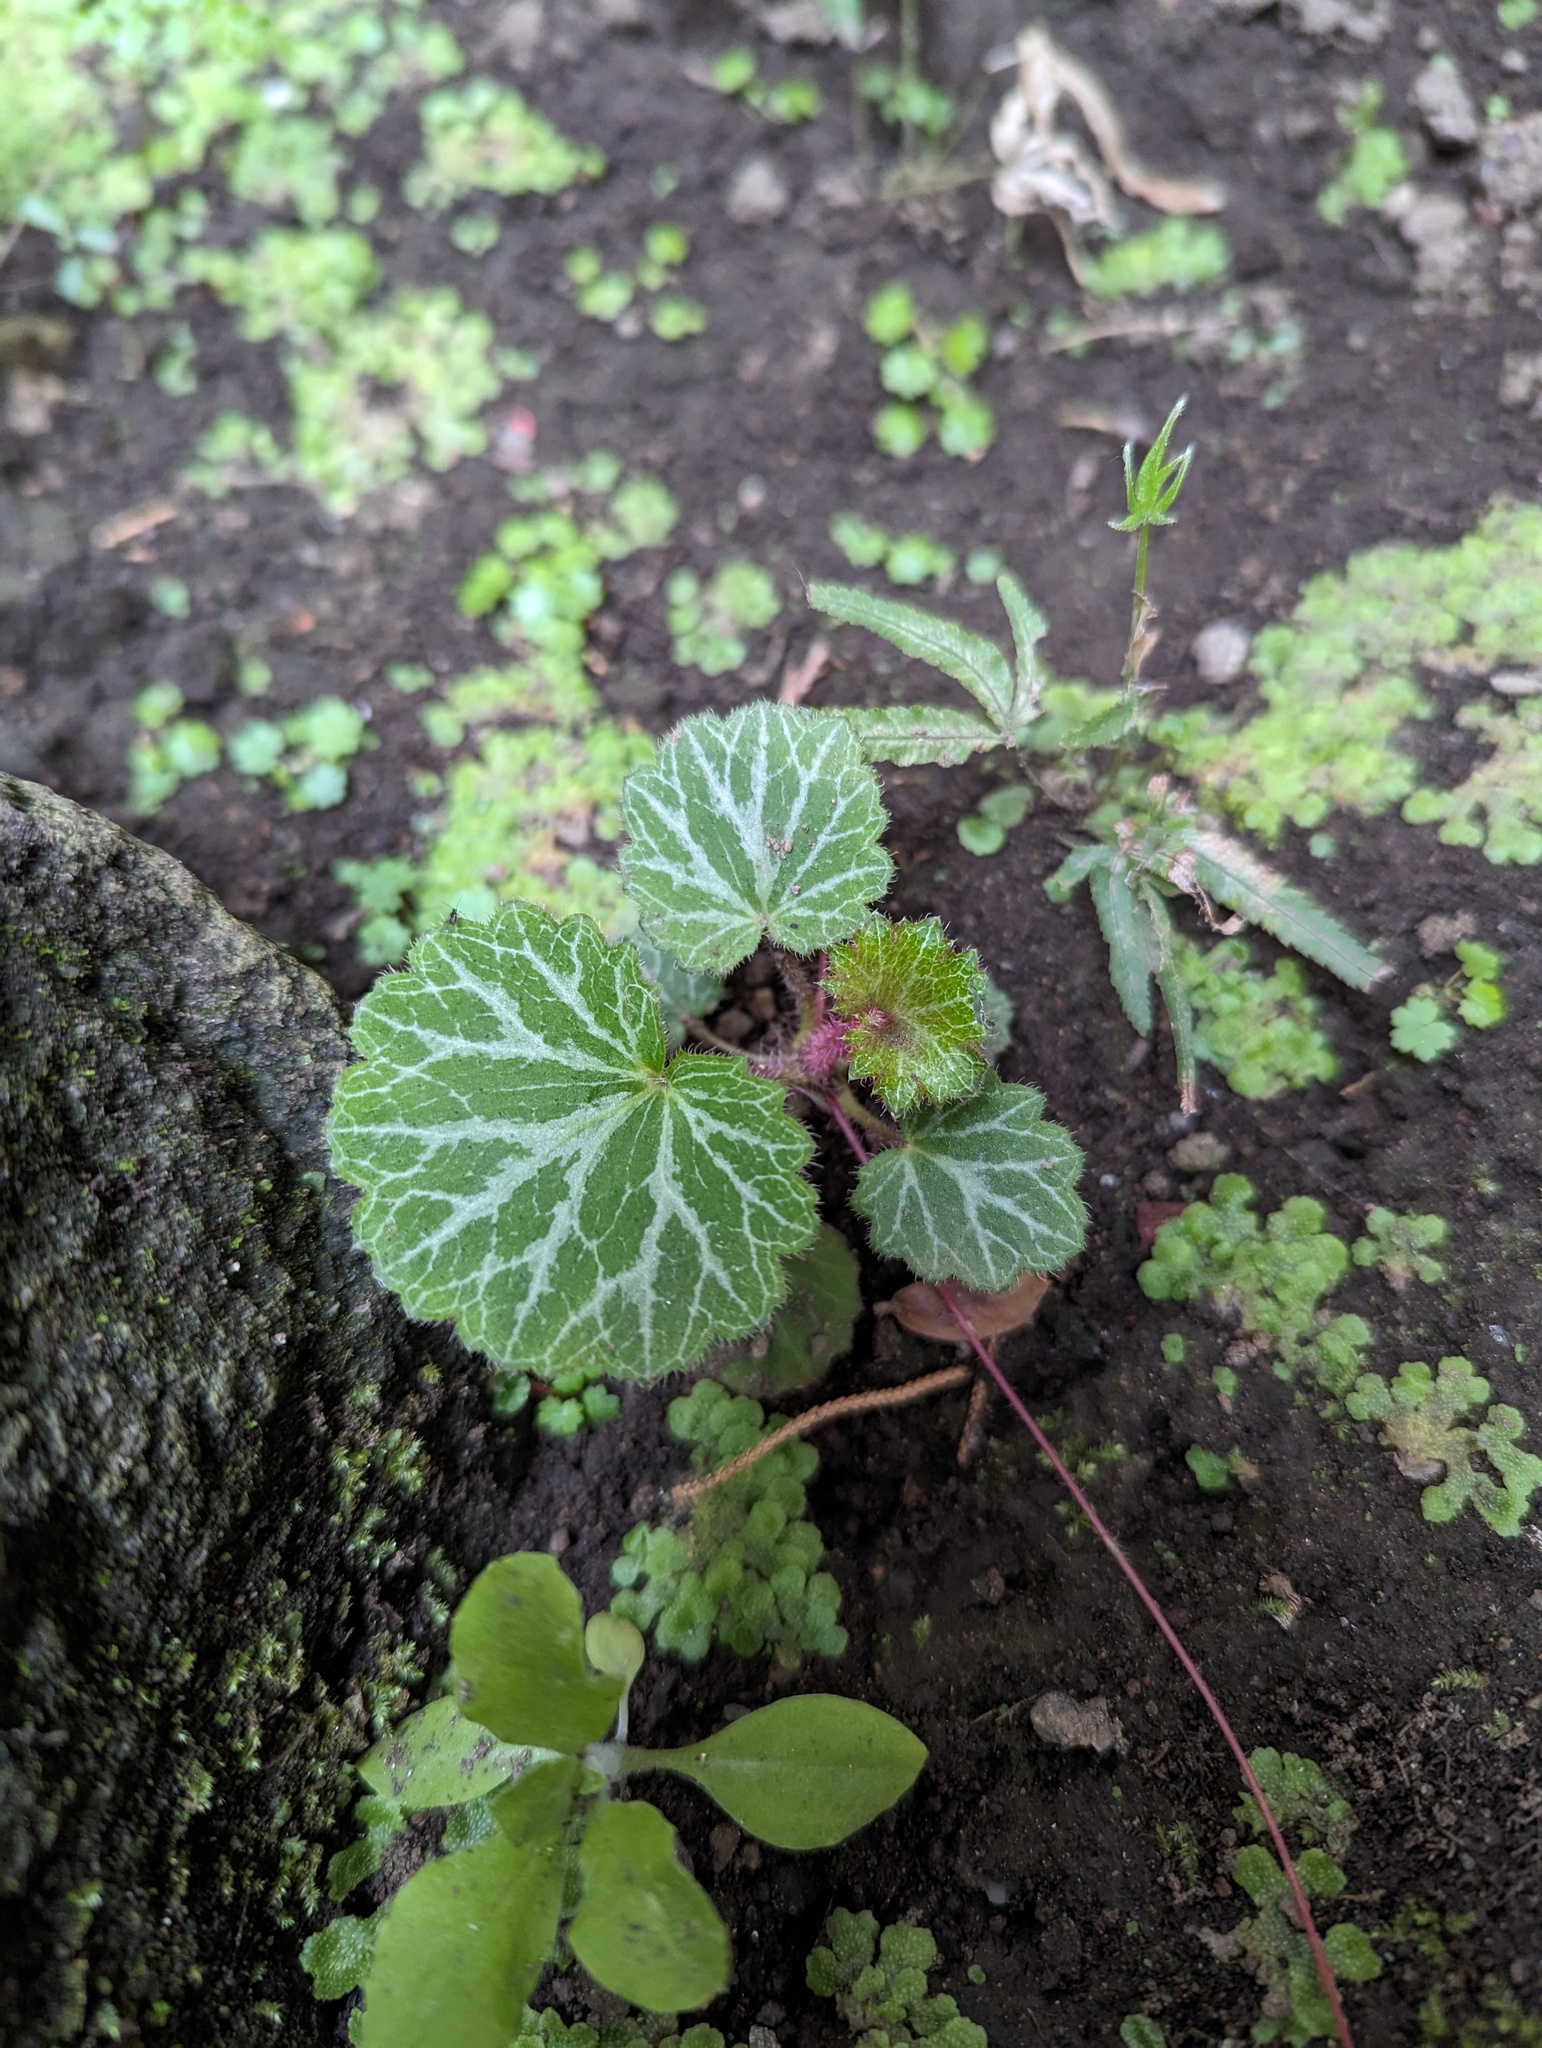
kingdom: Plantae
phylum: Tracheophyta
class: Magnoliopsida
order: Saxifragales
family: Saxifragaceae
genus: Saxifraga
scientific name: Saxifraga stolonifera
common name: Creeping saxifrage
